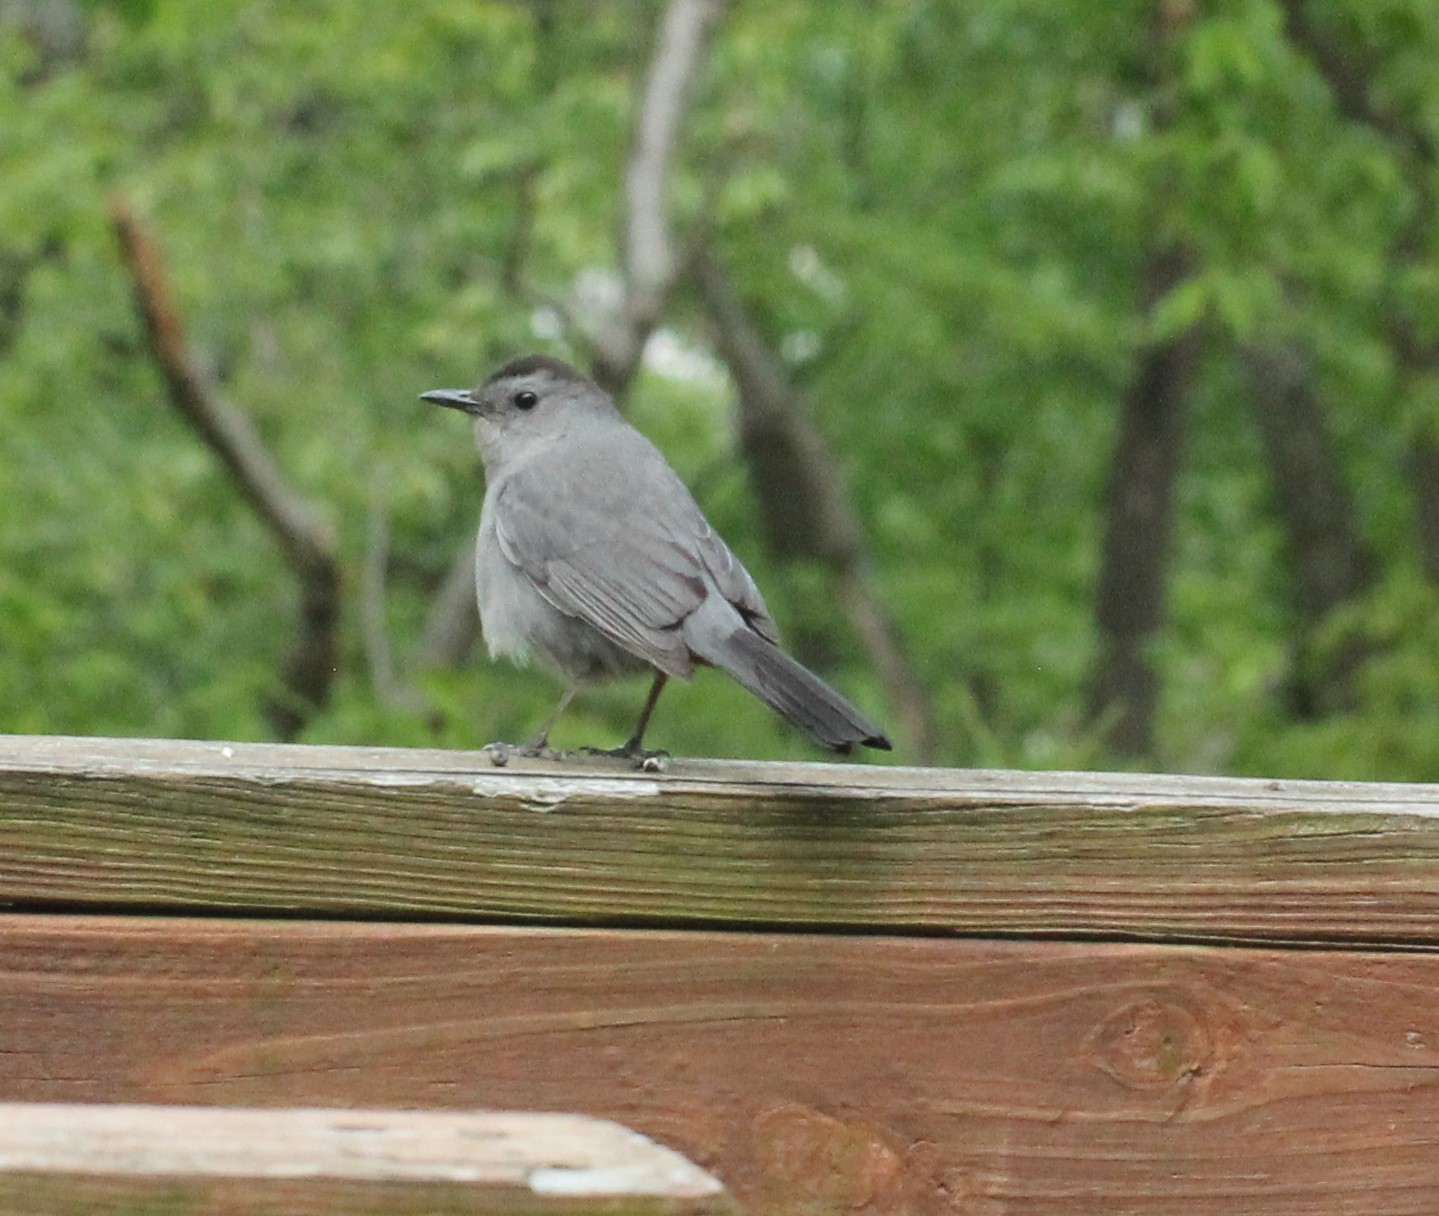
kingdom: Animalia
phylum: Chordata
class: Aves
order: Passeriformes
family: Mimidae
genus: Dumetella
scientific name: Dumetella carolinensis
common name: Gray catbird
